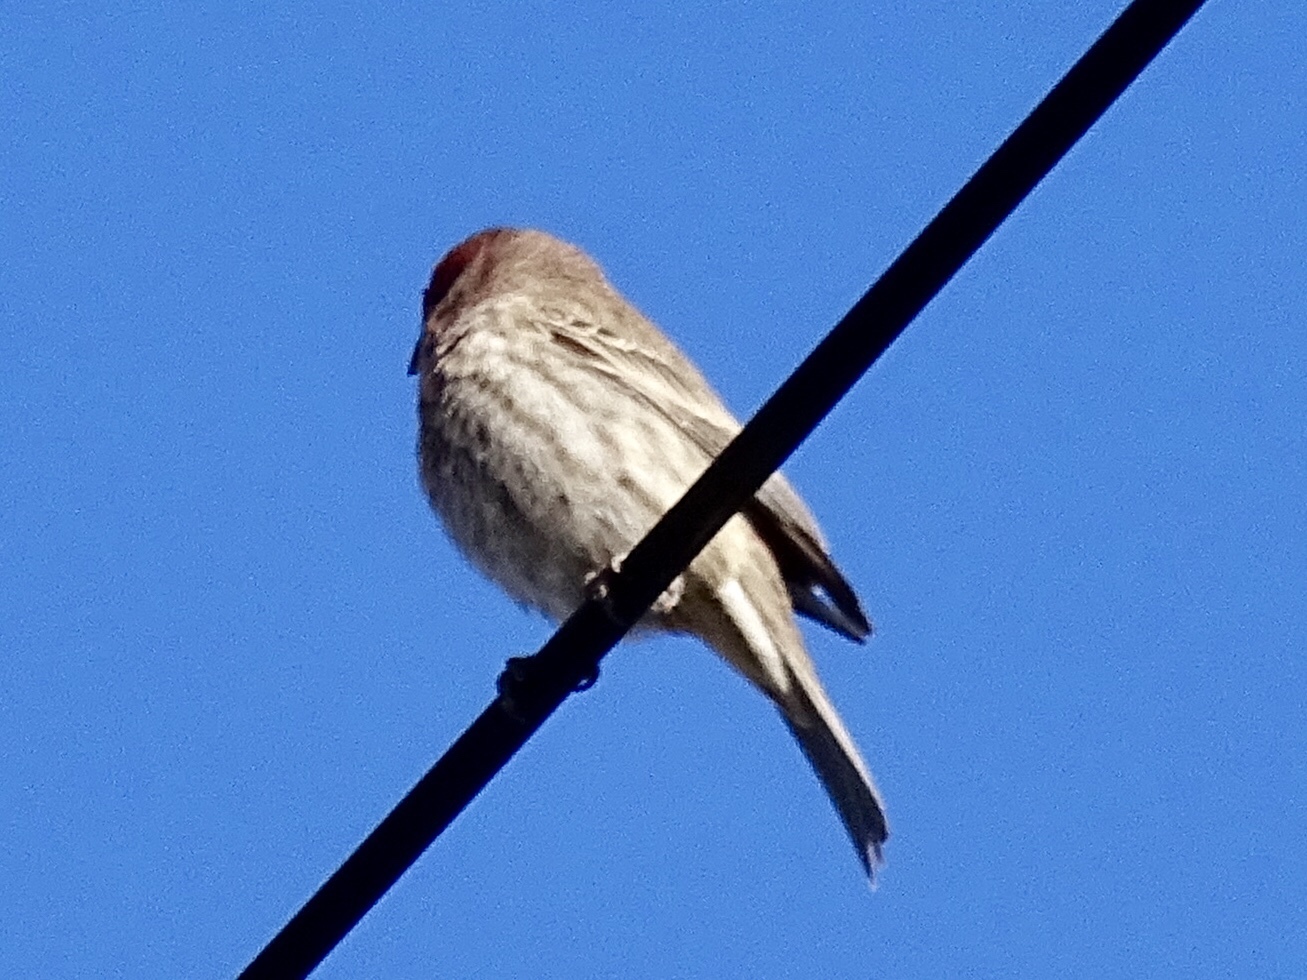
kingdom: Animalia
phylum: Chordata
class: Aves
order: Passeriformes
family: Fringillidae
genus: Haemorhous
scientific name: Haemorhous mexicanus
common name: House finch
